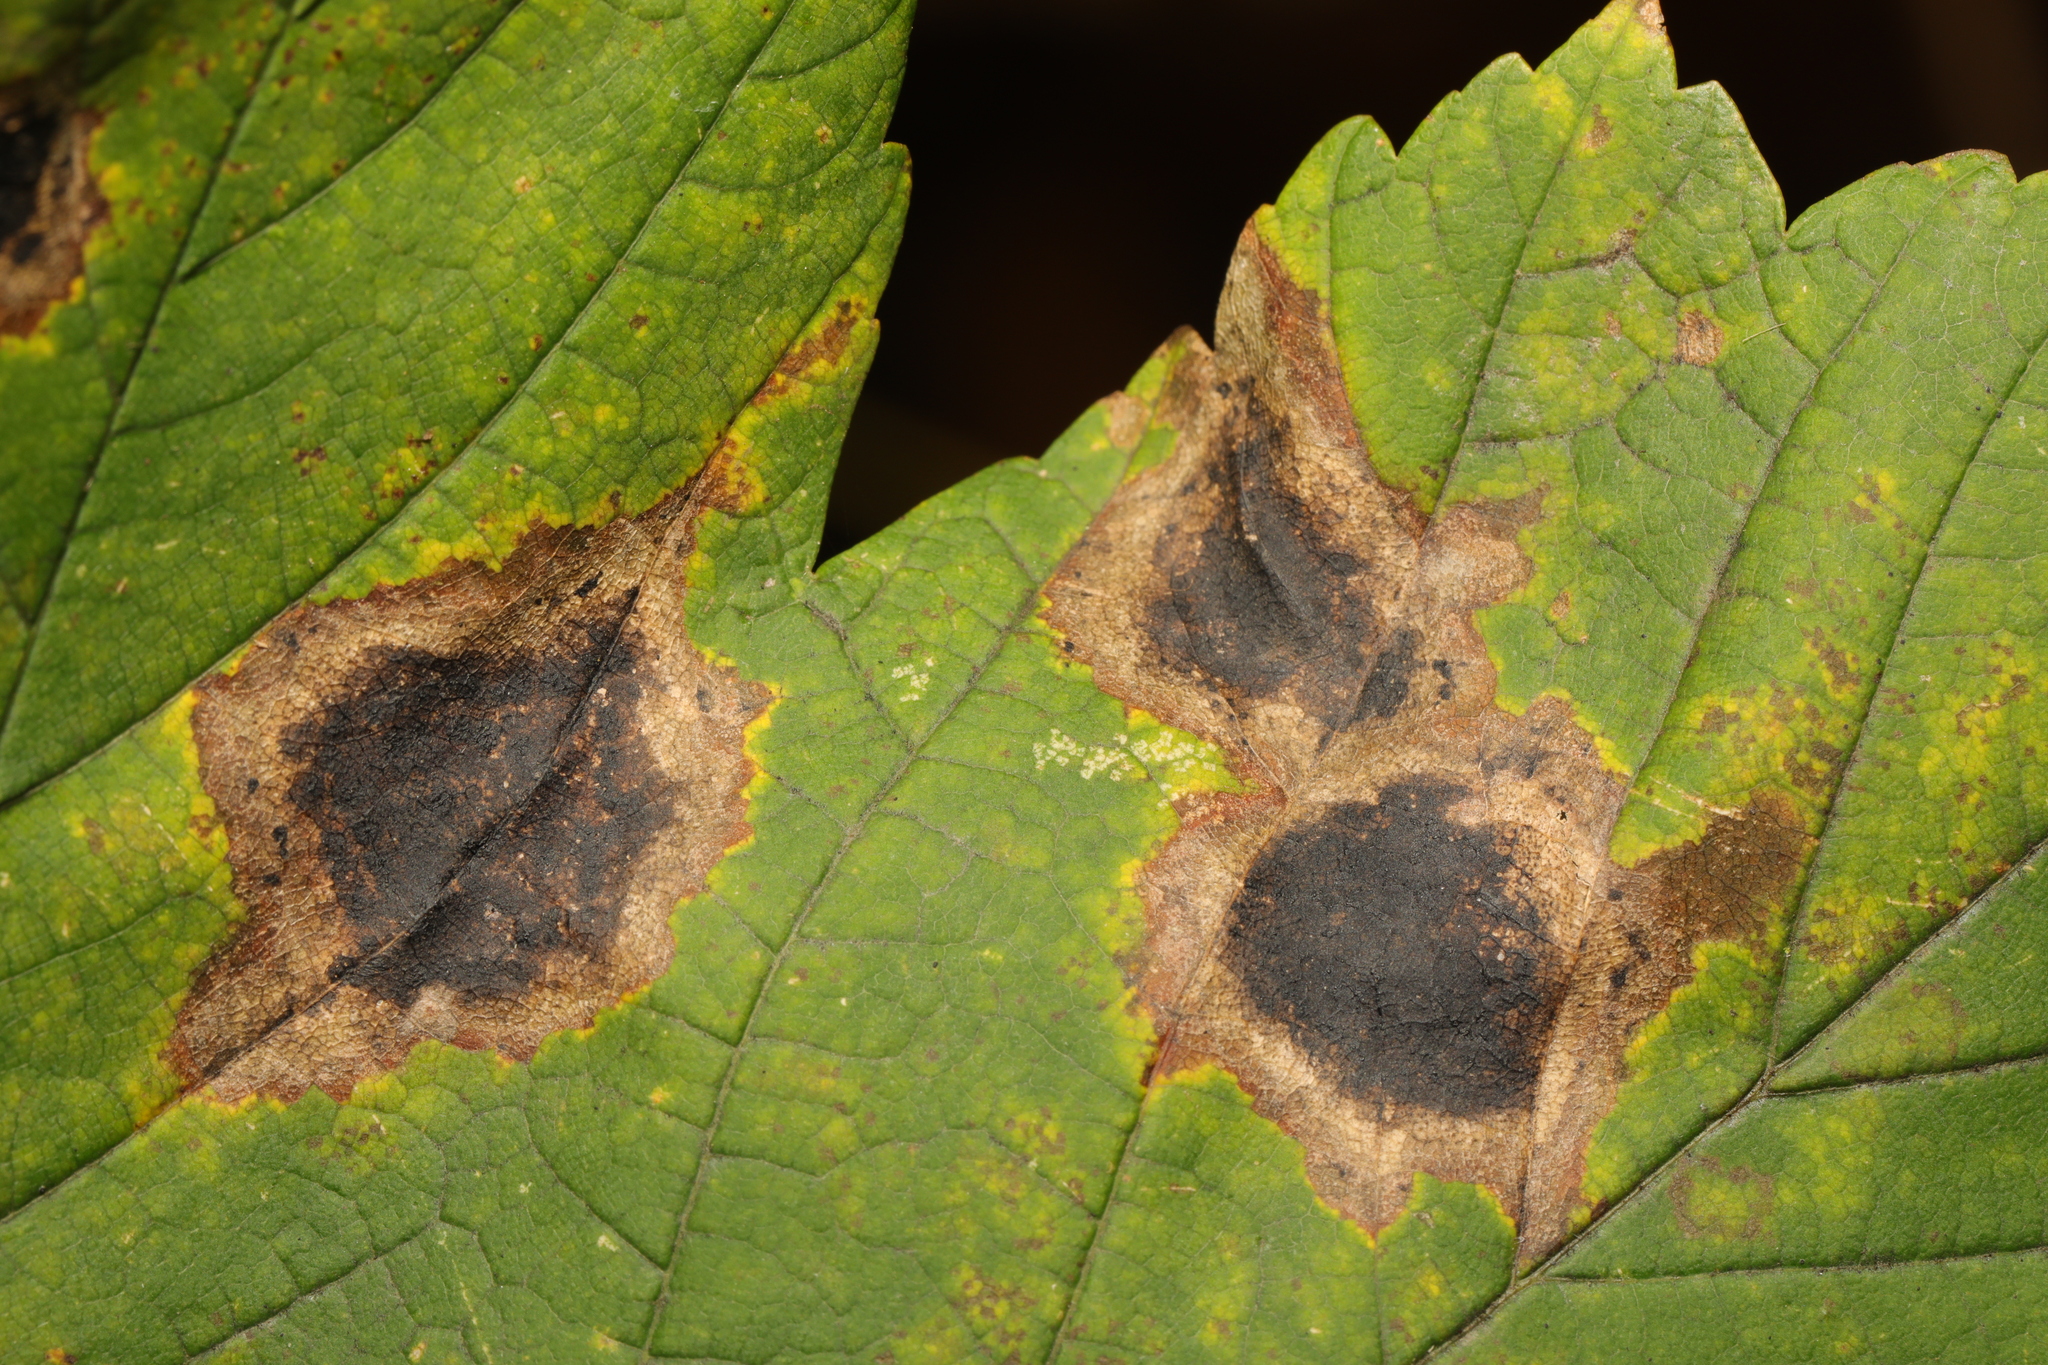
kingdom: Fungi
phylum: Ascomycota
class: Leotiomycetes
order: Rhytismatales
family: Rhytismataceae
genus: Rhytisma
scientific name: Rhytisma acerinum
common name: European tar spot
